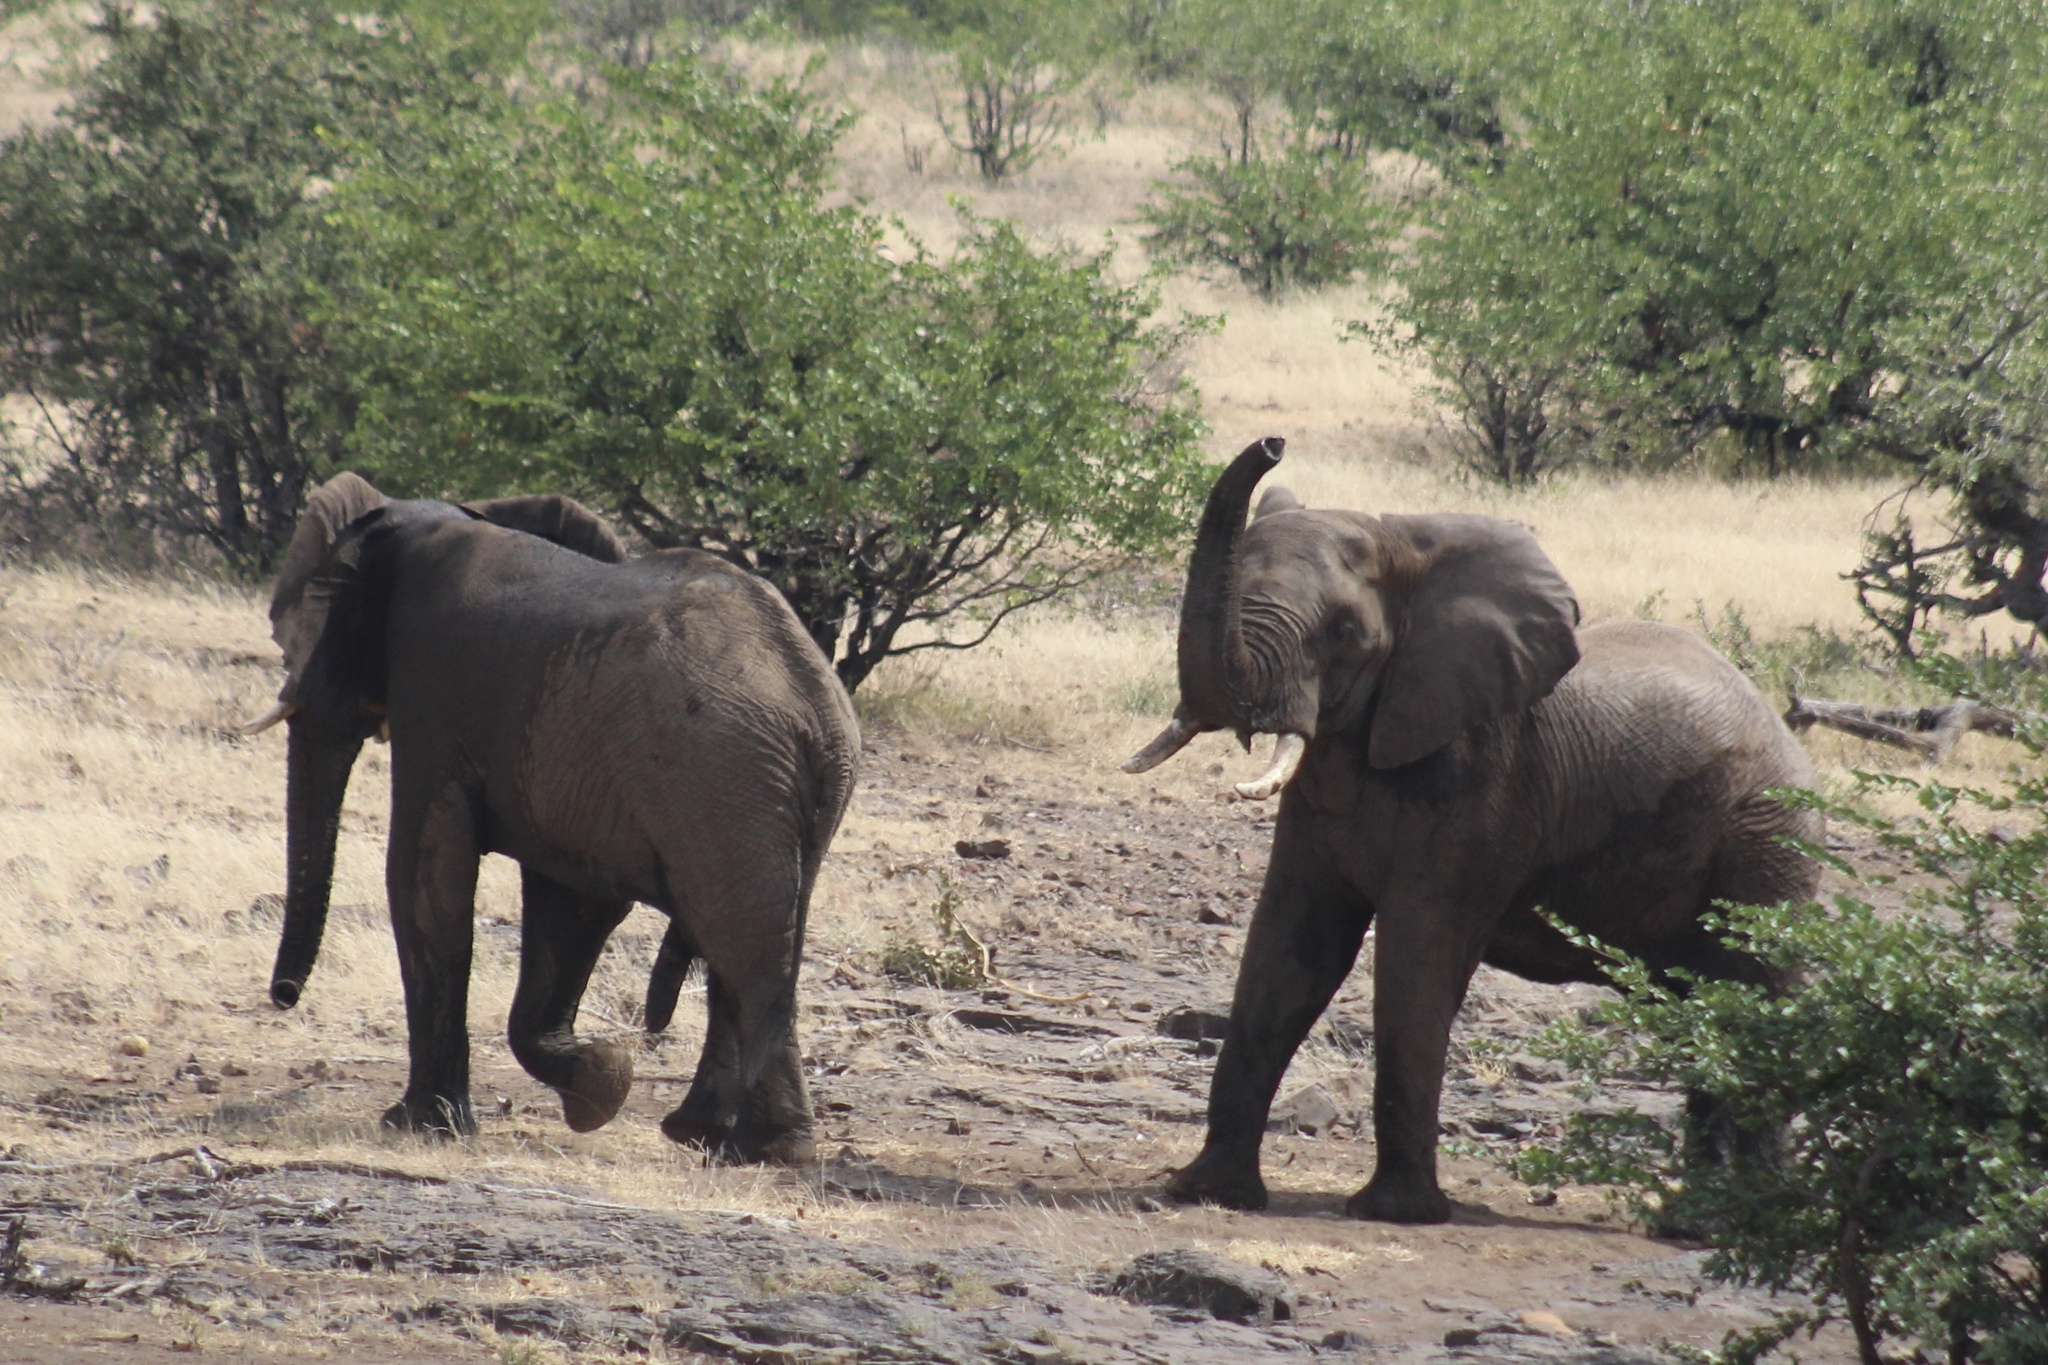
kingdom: Animalia
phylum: Chordata
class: Mammalia
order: Proboscidea
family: Elephantidae
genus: Loxodonta
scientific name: Loxodonta africana
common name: African elephant
